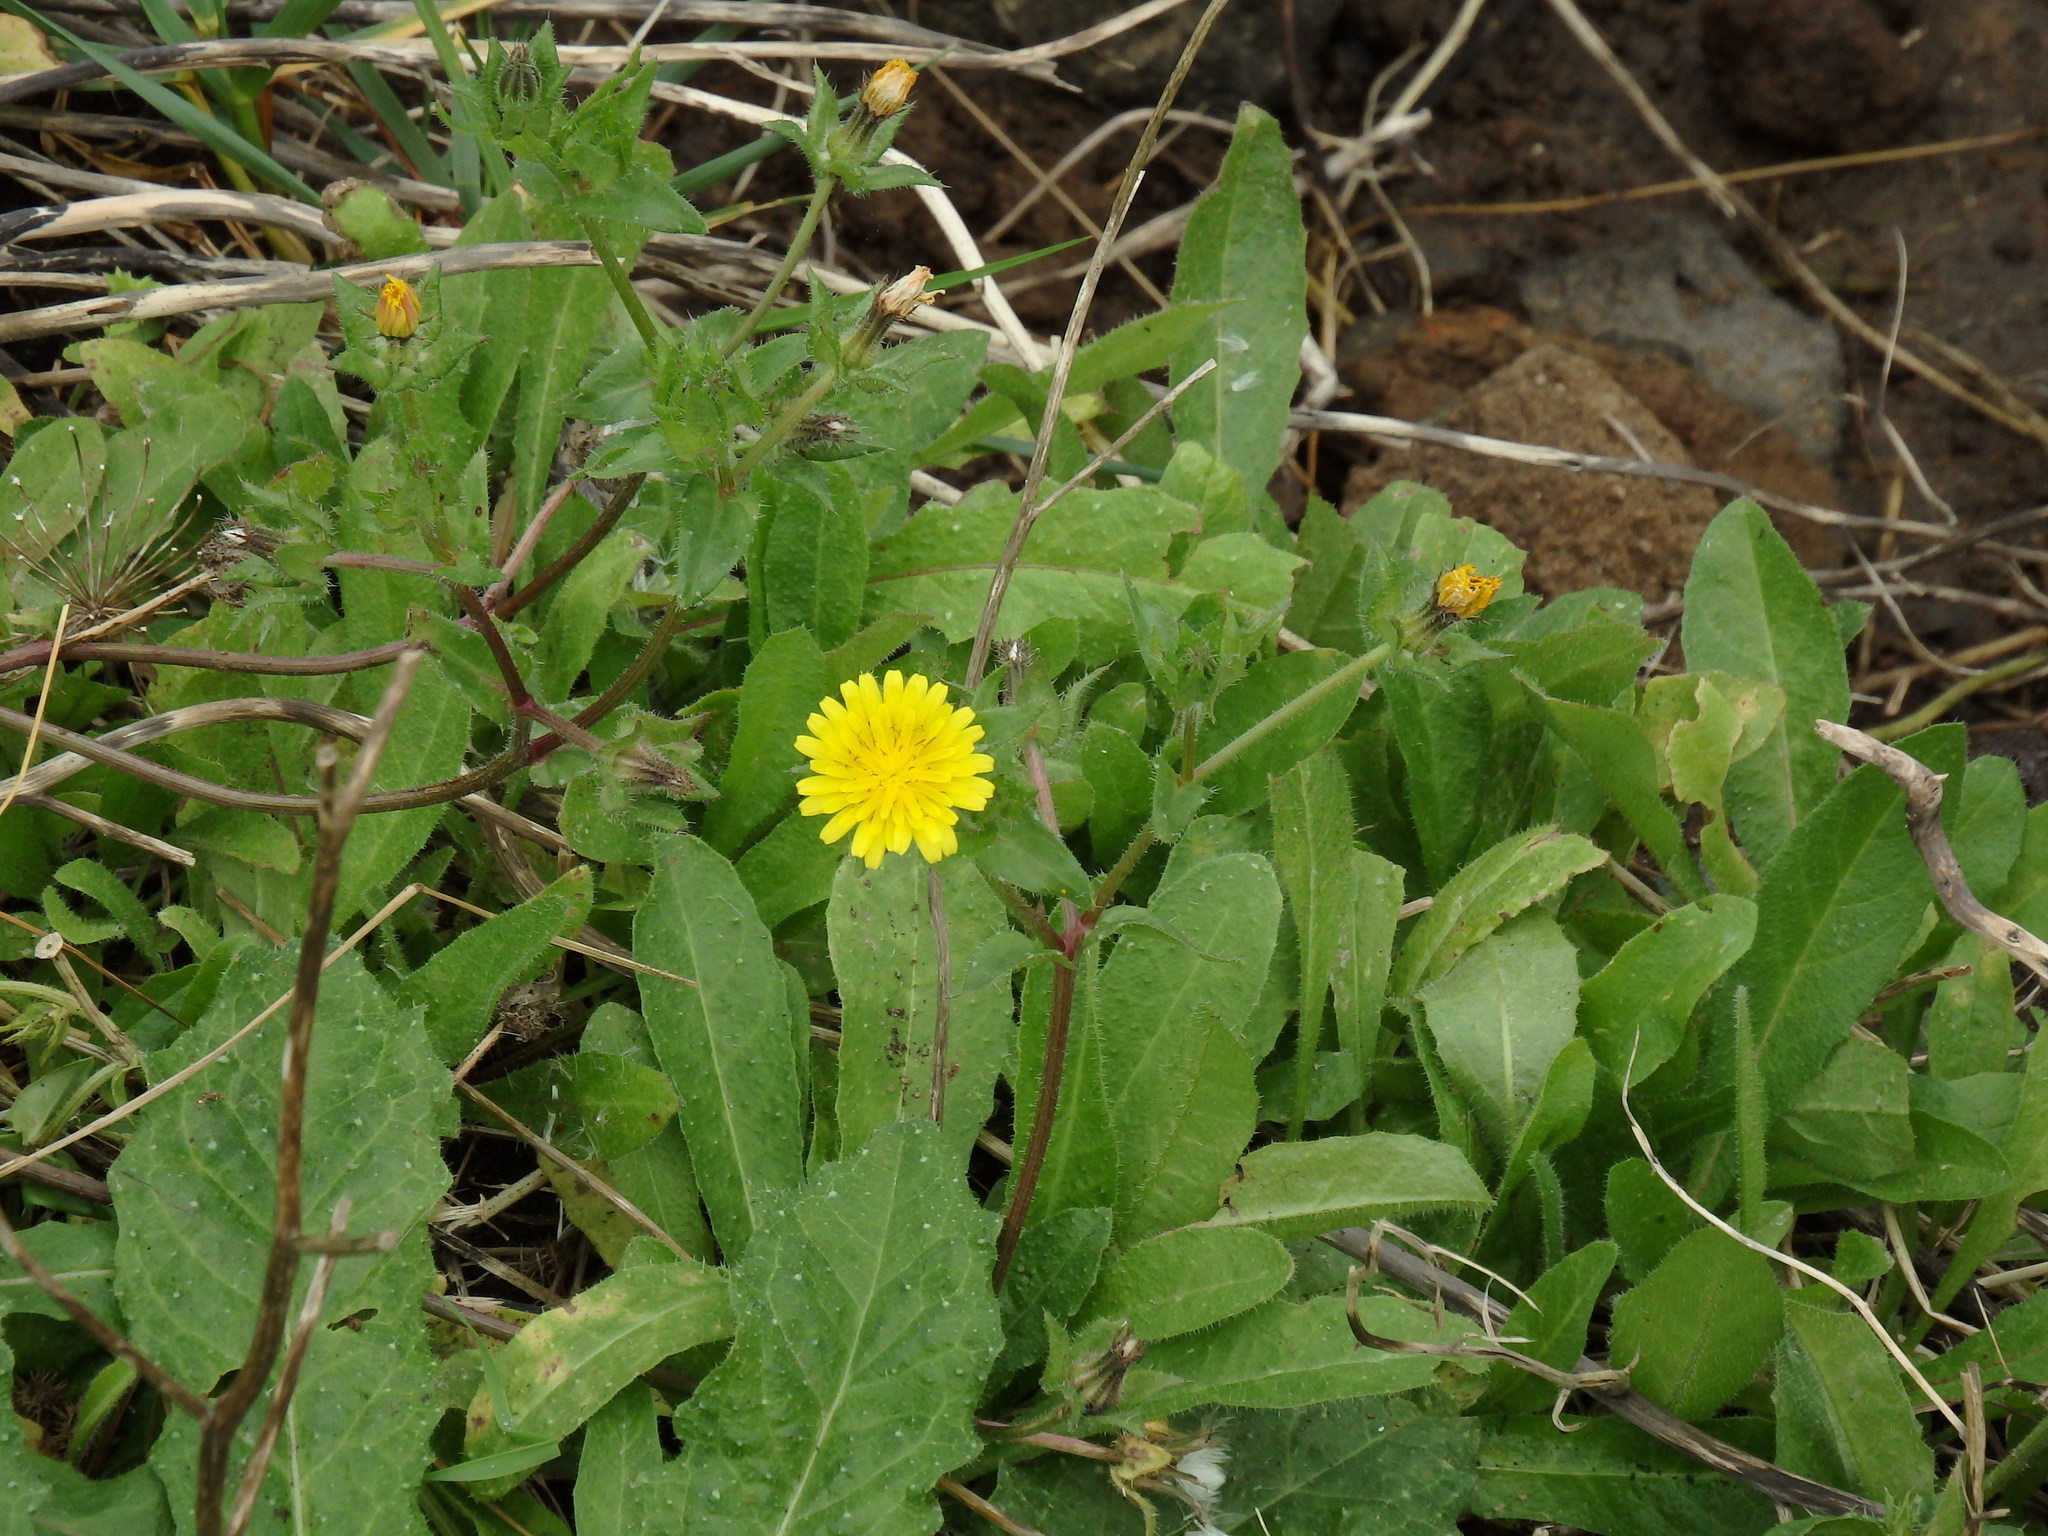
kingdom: Plantae
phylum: Tracheophyta
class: Magnoliopsida
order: Asterales
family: Asteraceae
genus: Helminthotheca
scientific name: Helminthotheca echioides
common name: Ox-tongue
